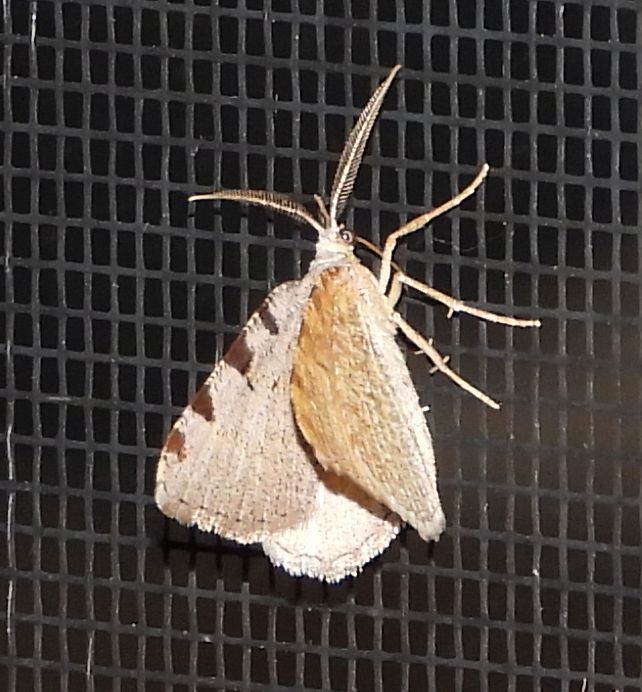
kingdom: Animalia
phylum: Arthropoda
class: Insecta
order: Lepidoptera
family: Geometridae
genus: Macaria
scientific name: Macaria coortaria
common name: Four-spotted granite
